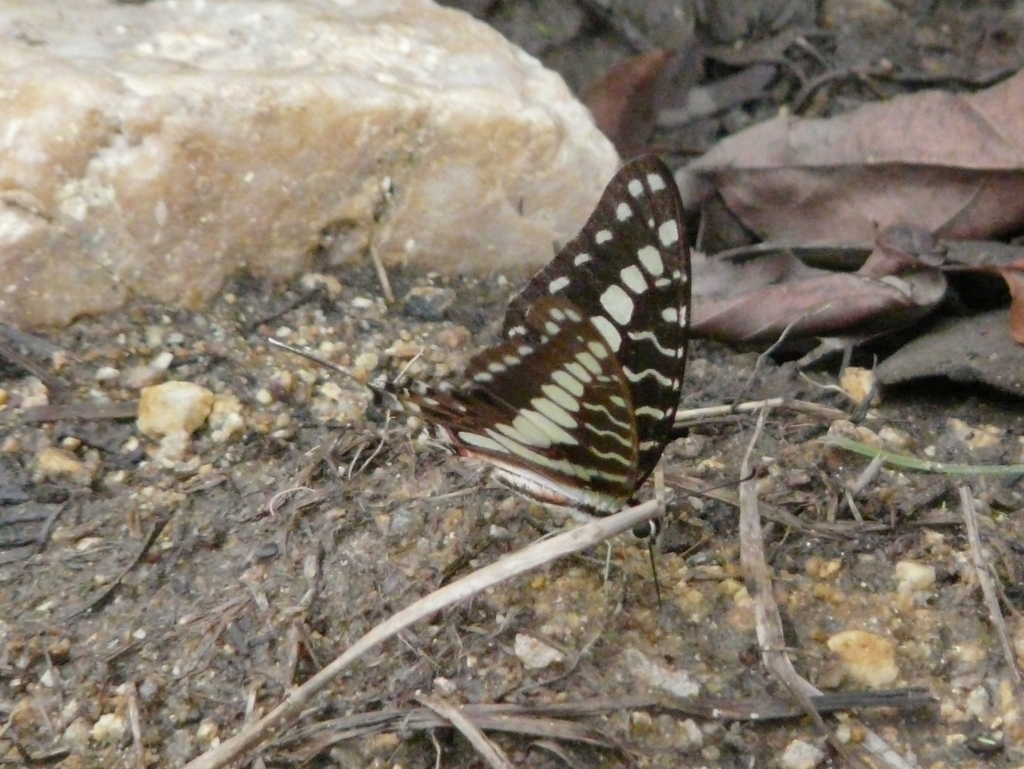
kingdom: Animalia
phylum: Arthropoda
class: Insecta
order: Lepidoptera
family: Papilionidae
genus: Graphium
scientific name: Graphium porthaon
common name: Coastal swordtail
